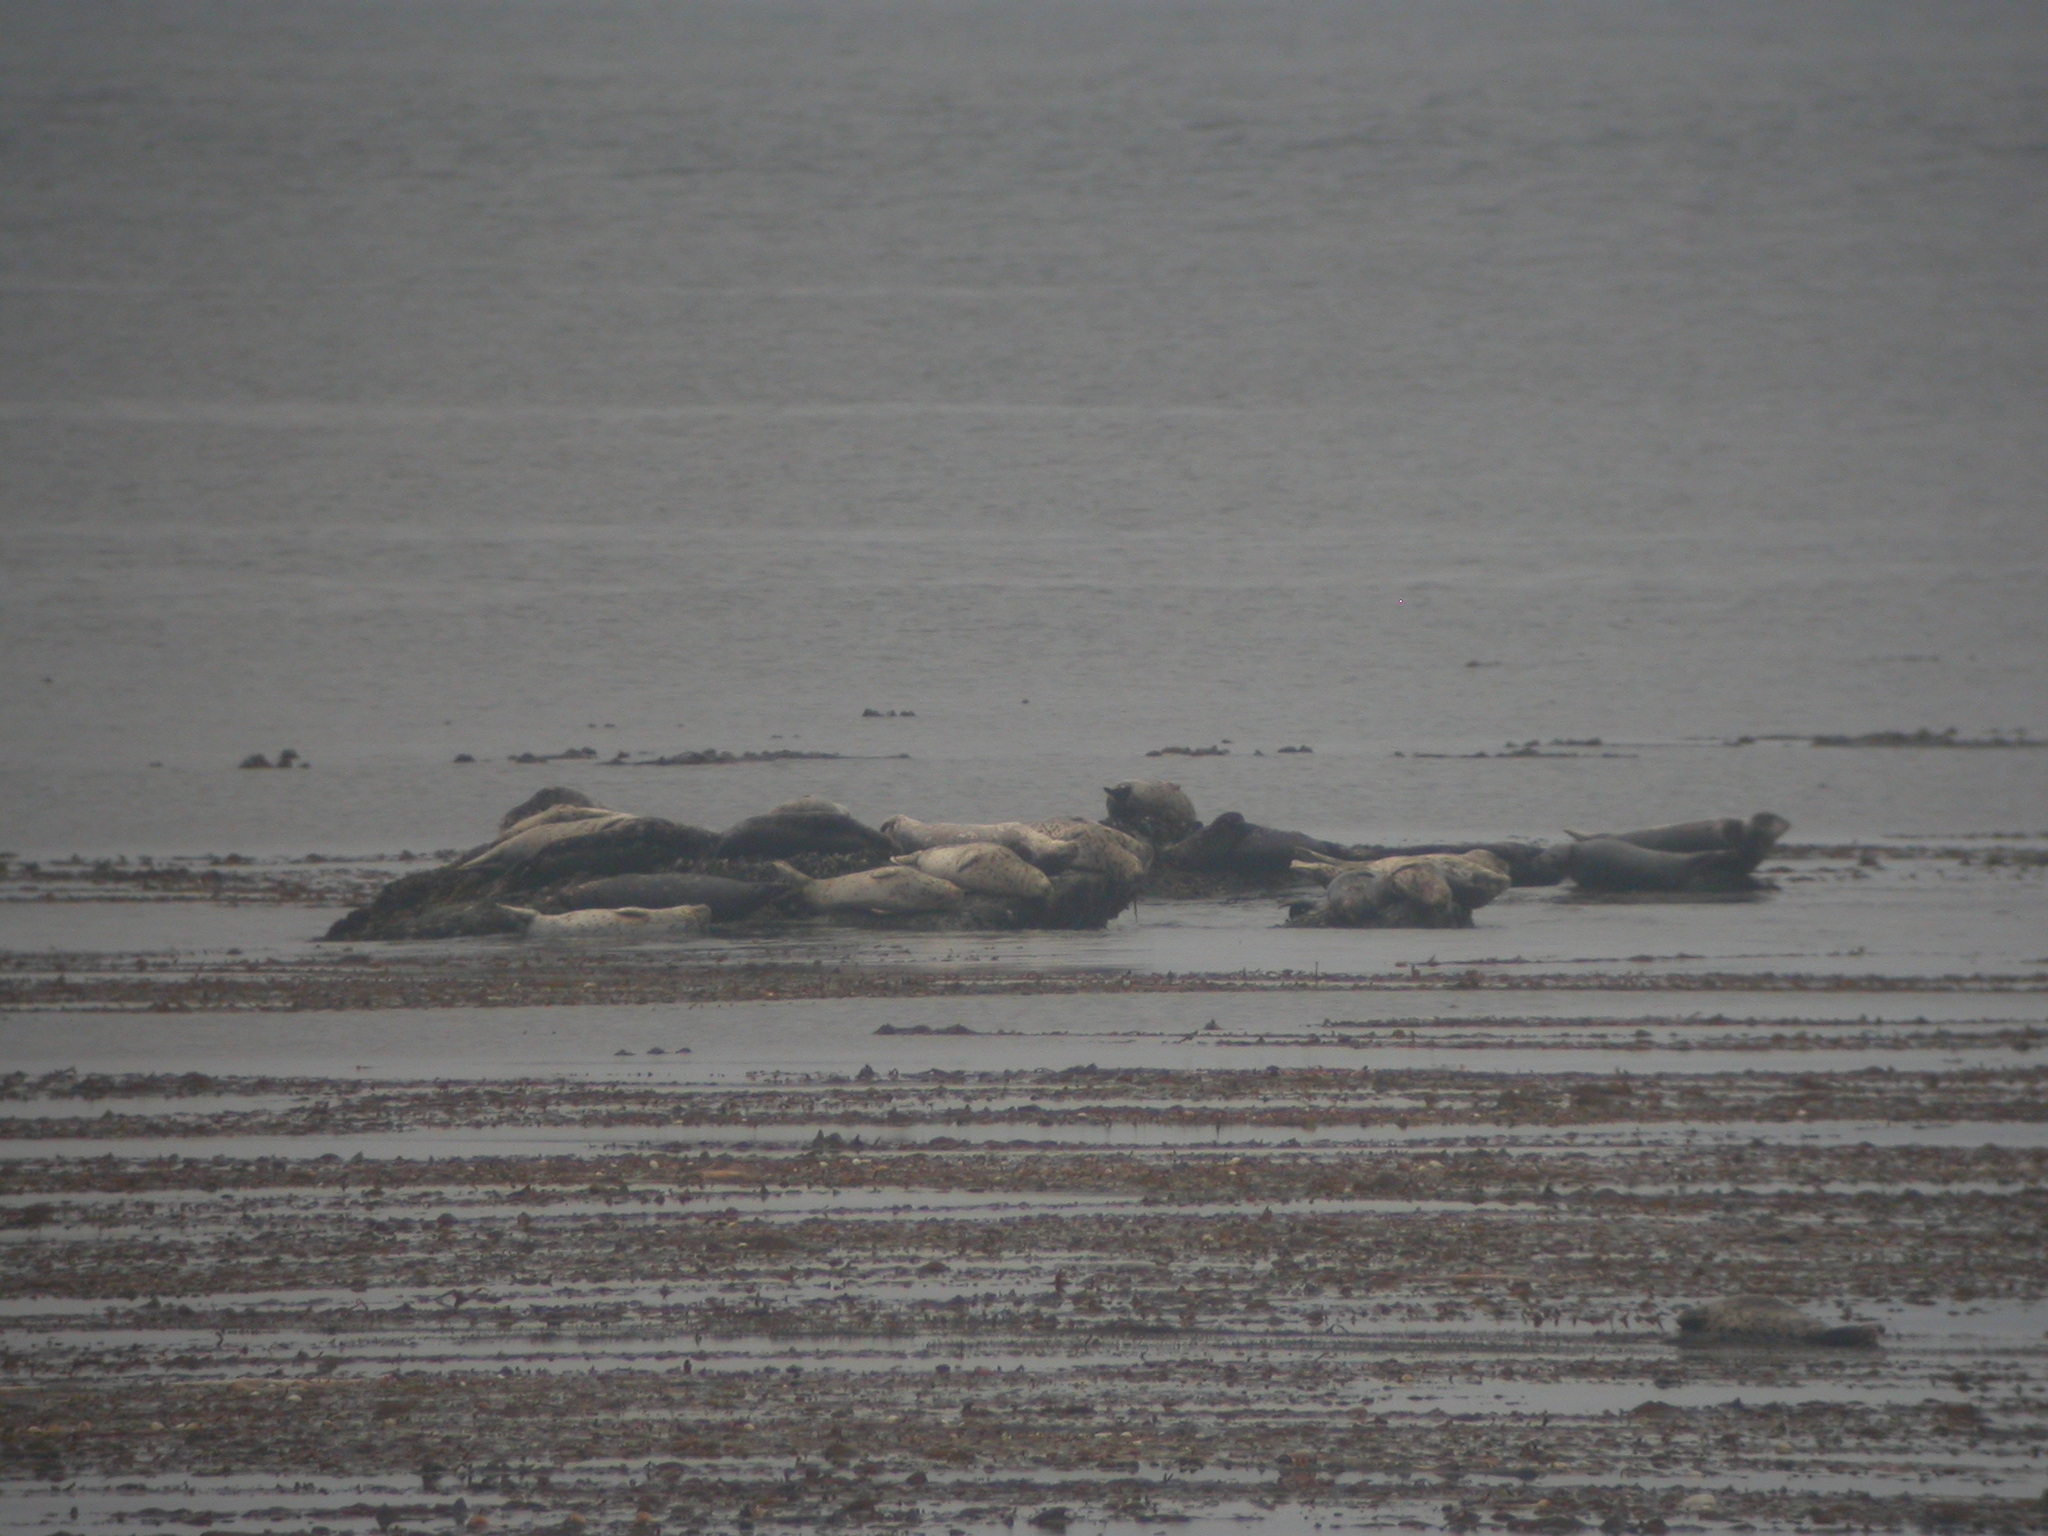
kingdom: Animalia
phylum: Chordata
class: Mammalia
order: Carnivora
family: Phocidae
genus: Phoca
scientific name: Phoca vitulina
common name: Harbor seal
